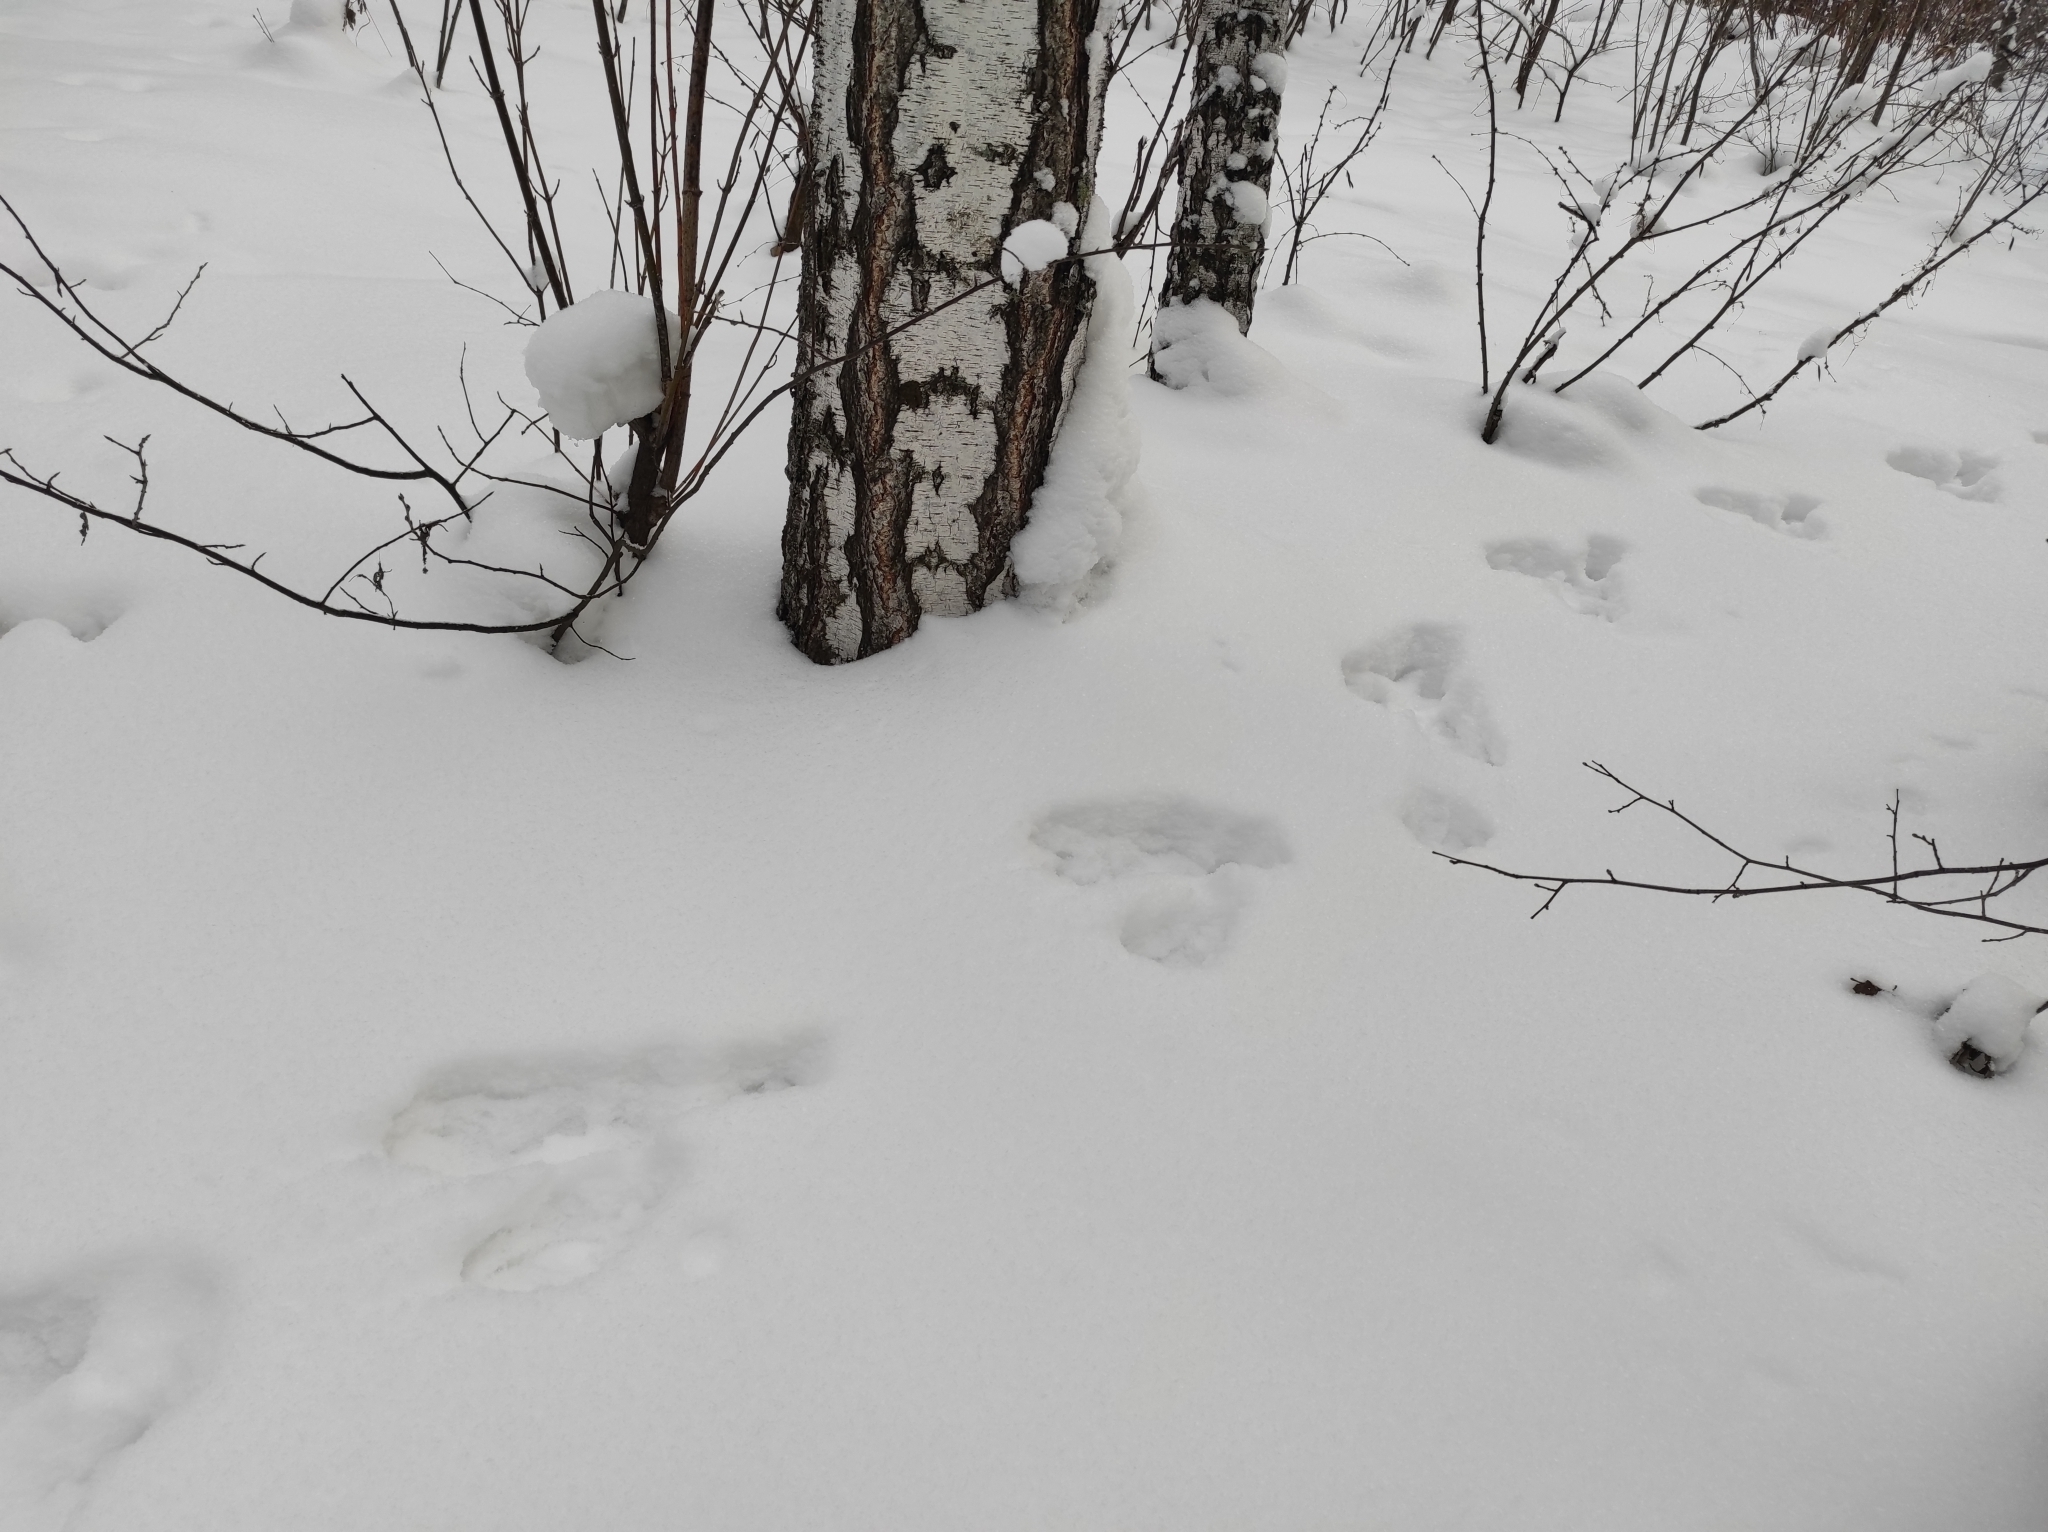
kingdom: Plantae
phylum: Tracheophyta
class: Magnoliopsida
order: Fagales
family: Betulaceae
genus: Betula
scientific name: Betula pendula
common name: Silver birch
